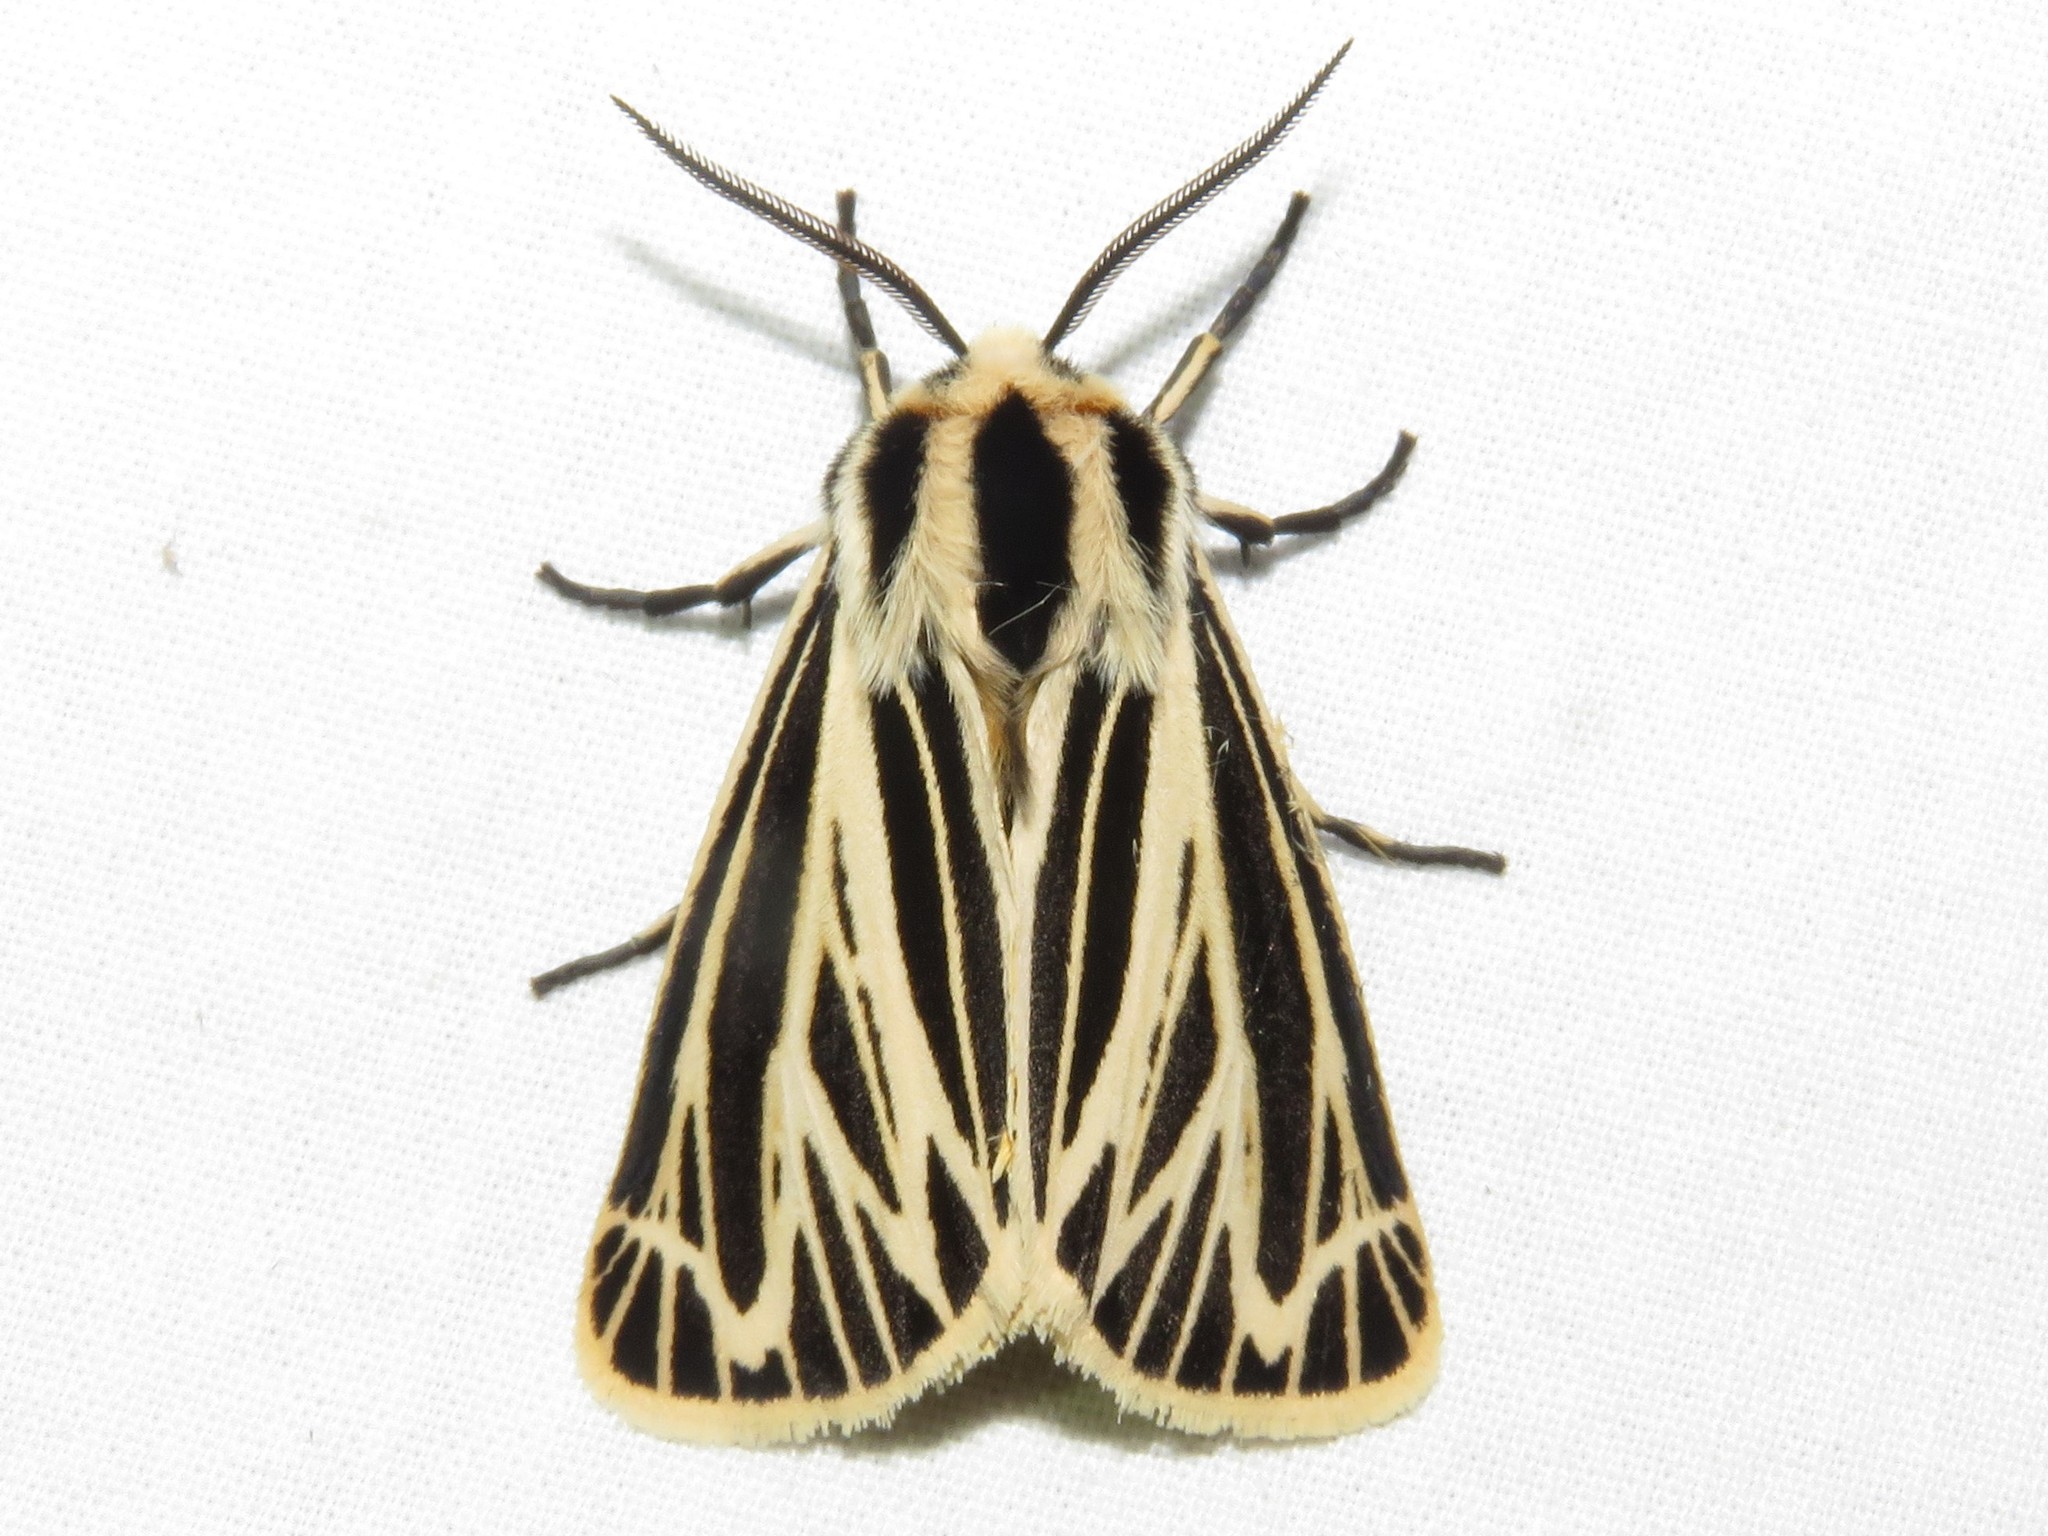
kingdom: Animalia
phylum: Arthropoda
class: Insecta
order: Lepidoptera
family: Erebidae
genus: Grammia
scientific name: Grammia virguncula
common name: Little tiger moth
